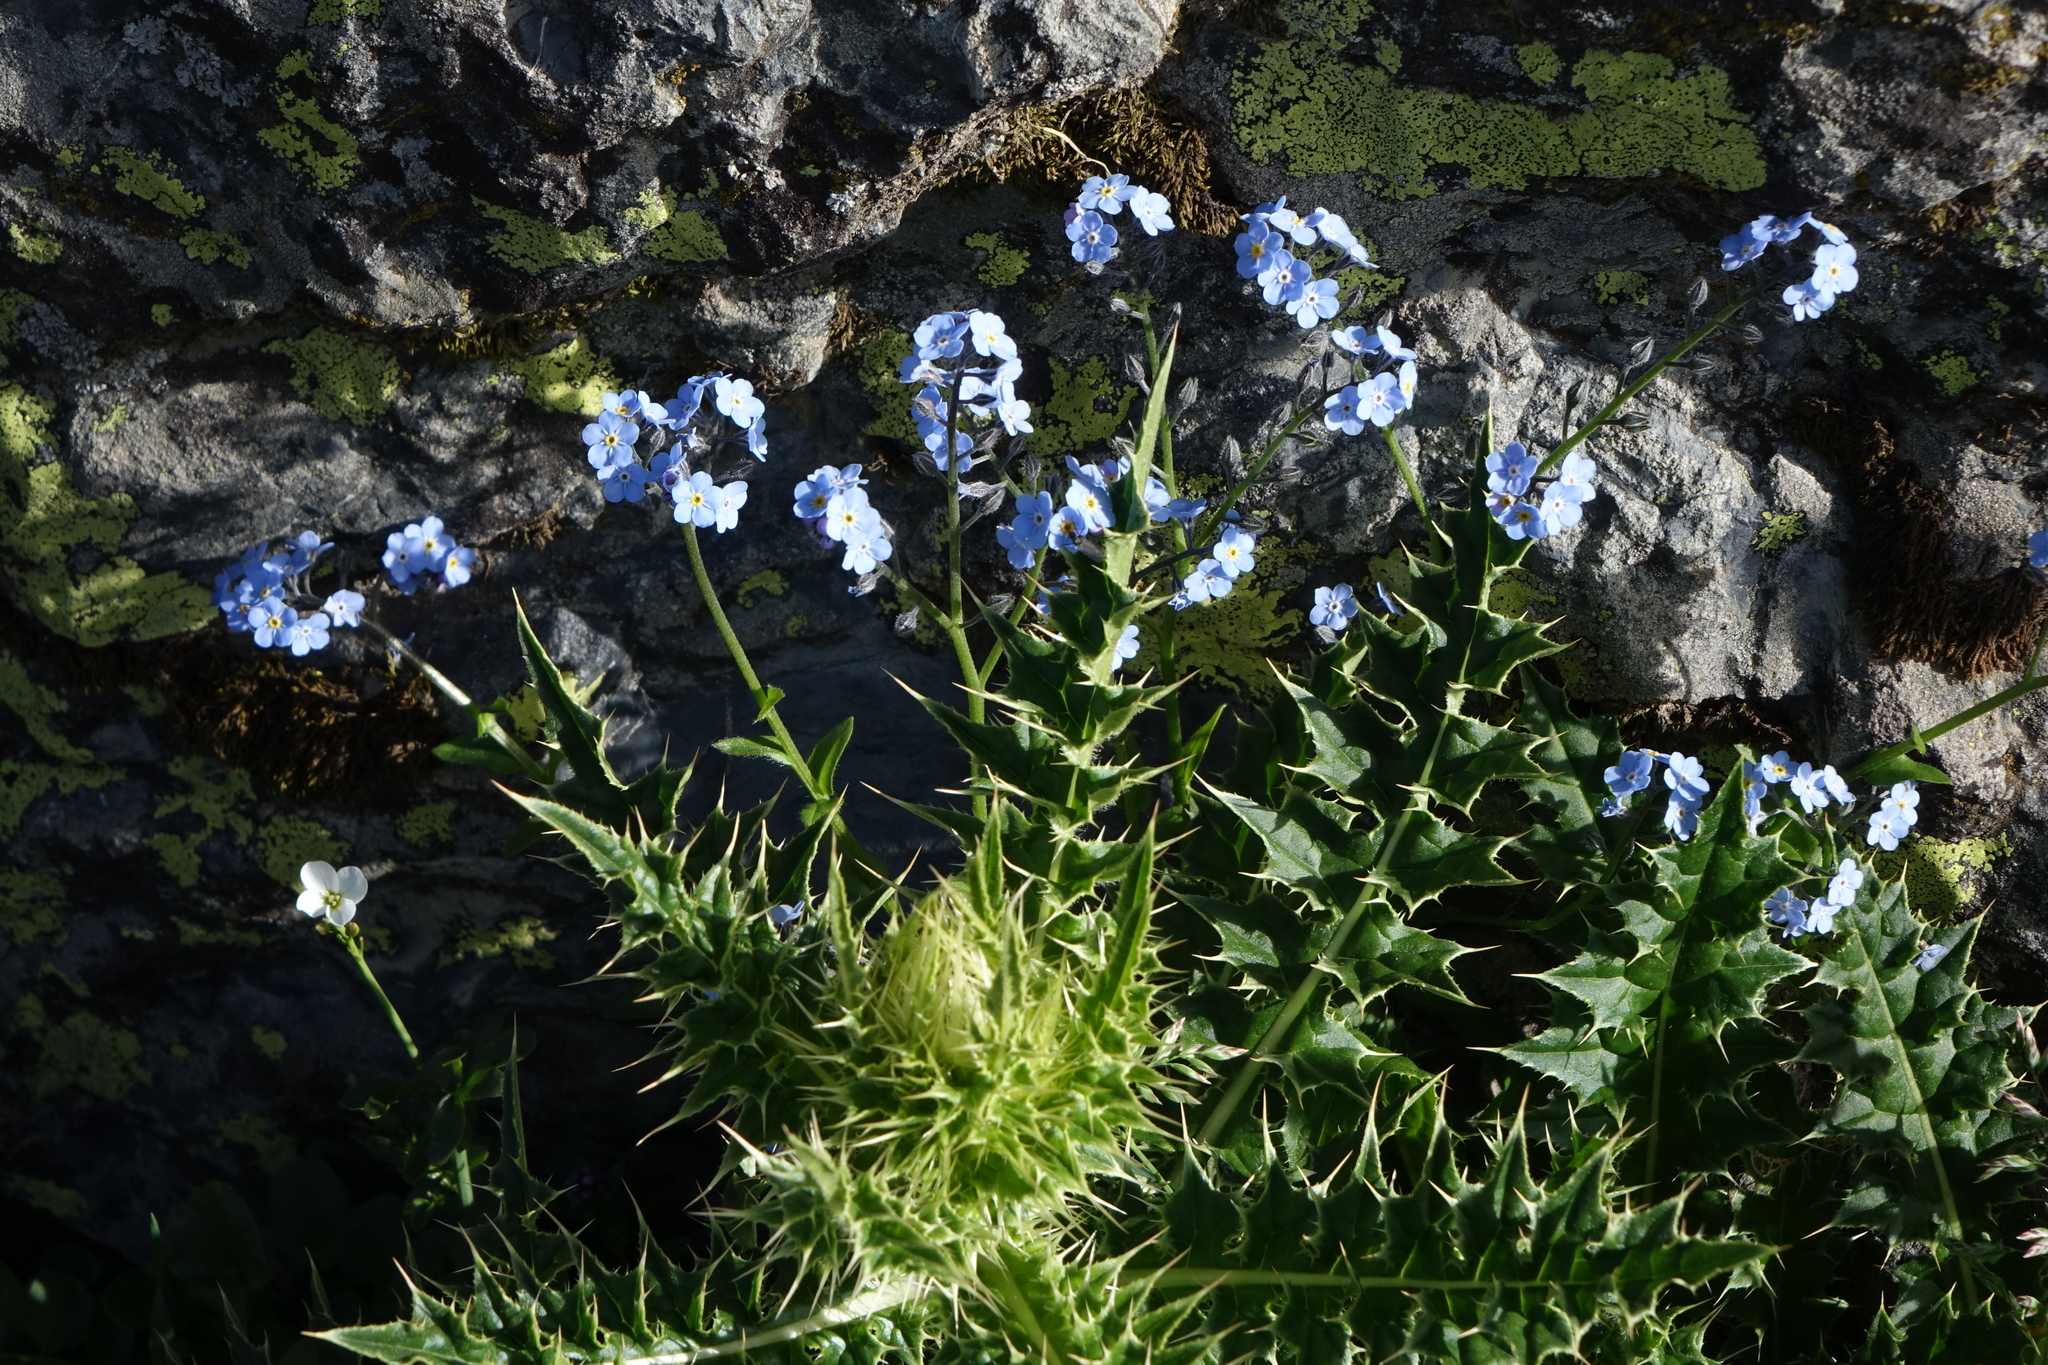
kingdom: Plantae
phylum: Tracheophyta
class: Magnoliopsida
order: Asterales
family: Asteraceae
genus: Cirsium
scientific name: Cirsium obvallatum
